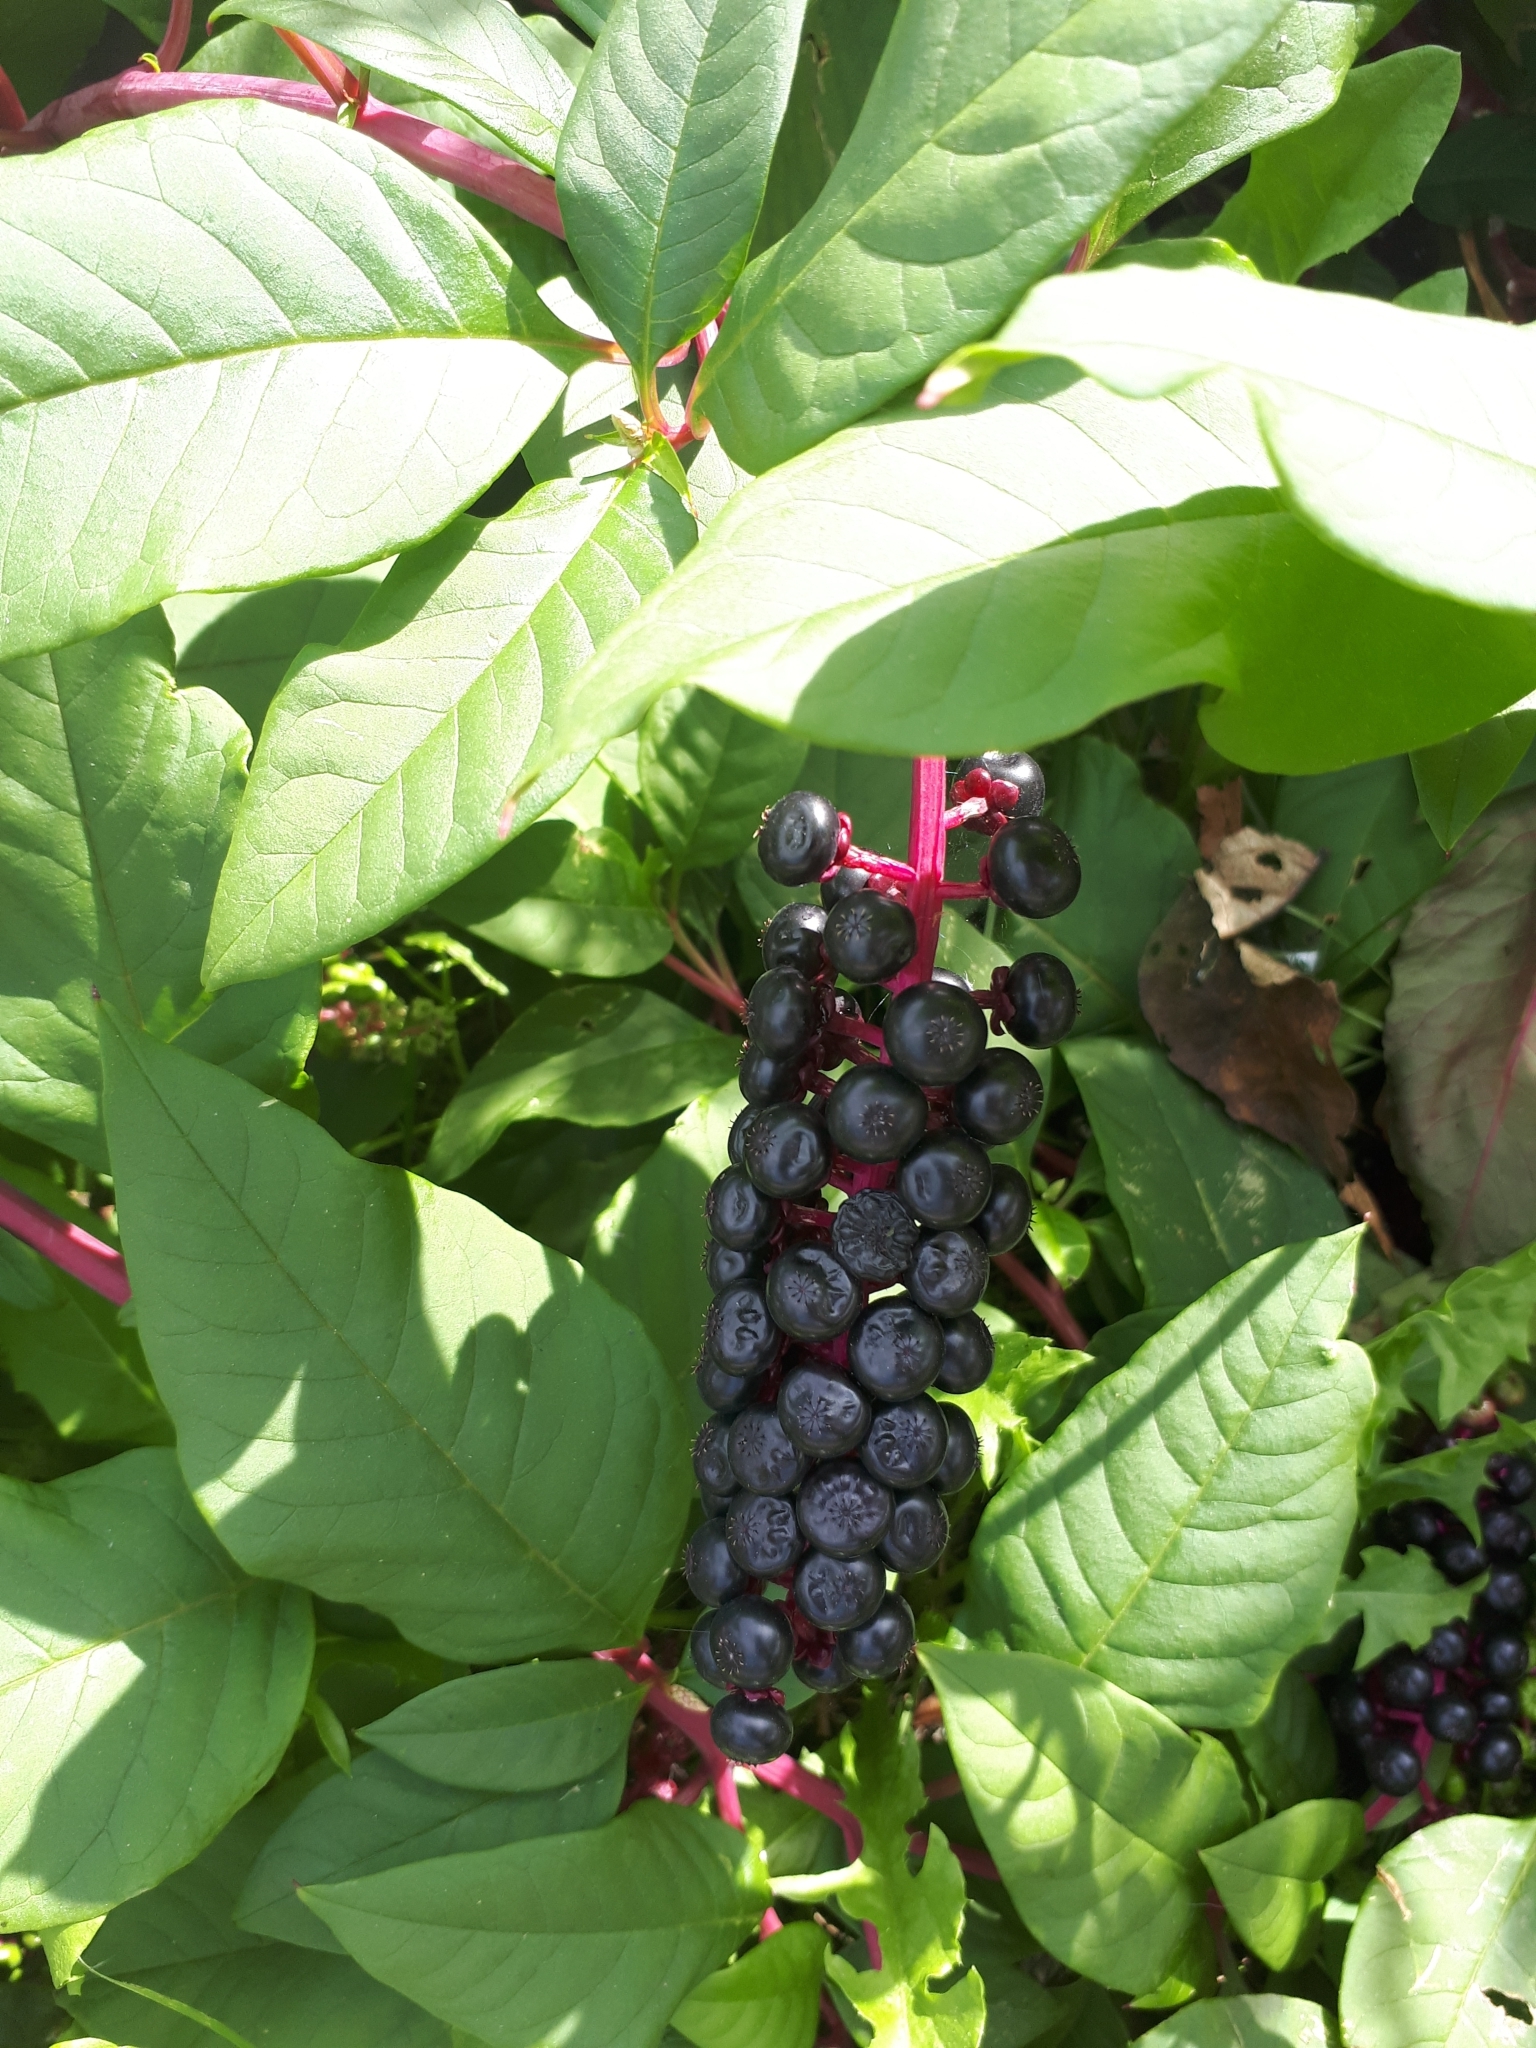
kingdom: Plantae
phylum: Tracheophyta
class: Magnoliopsida
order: Caryophyllales
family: Phytolaccaceae
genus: Phytolacca
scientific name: Phytolacca americana
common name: American pokeweed
